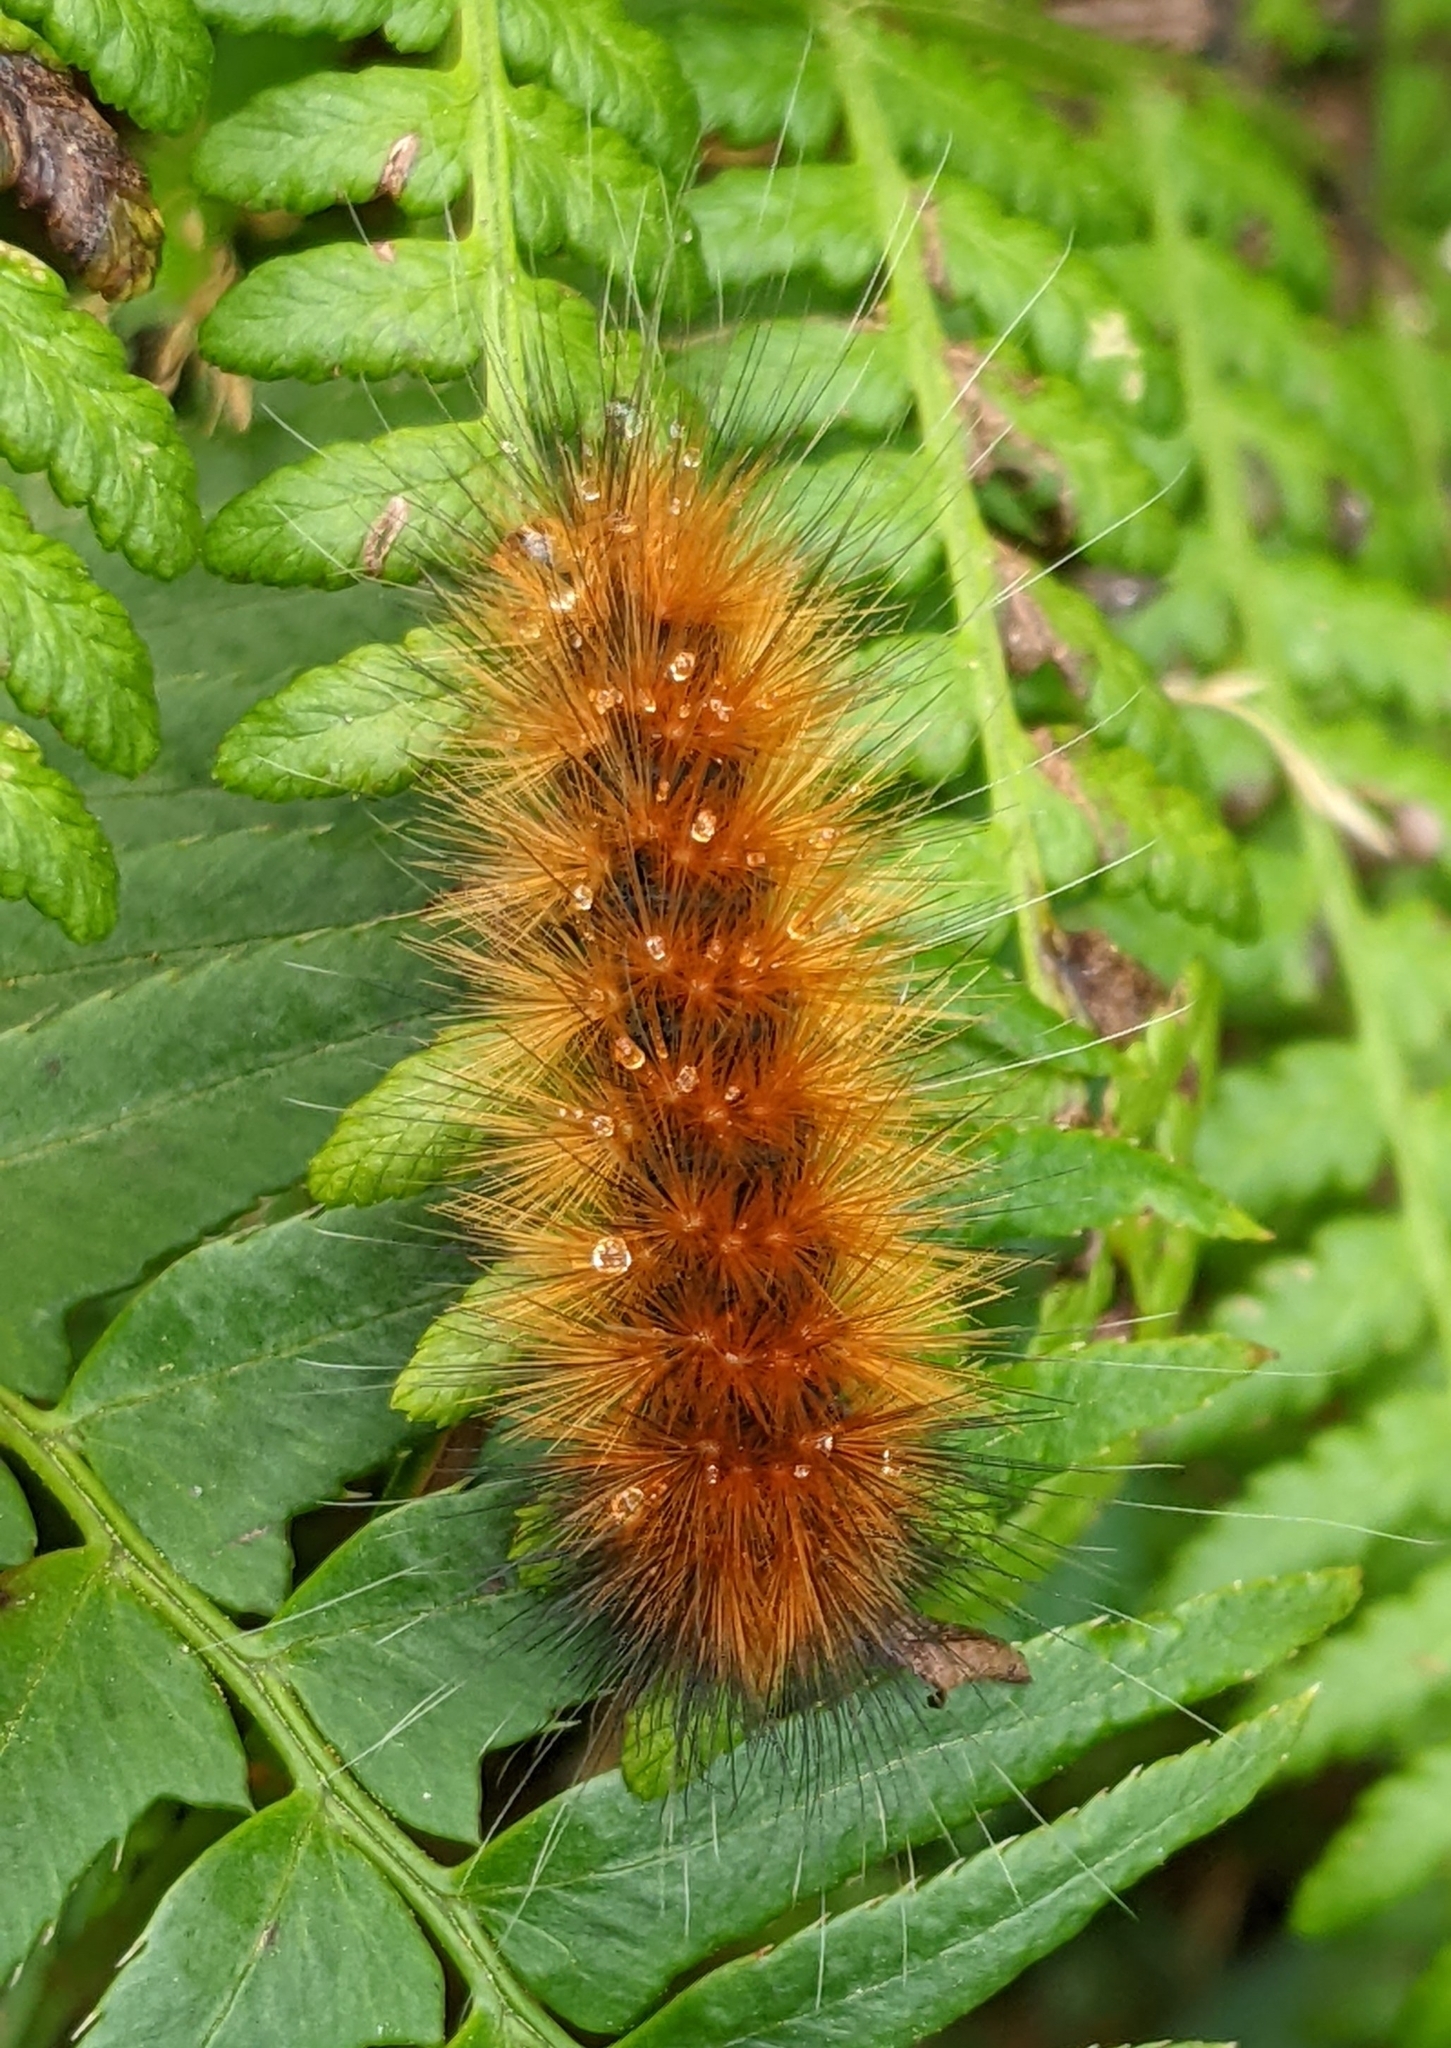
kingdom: Animalia
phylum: Arthropoda
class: Insecta
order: Lepidoptera
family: Erebidae
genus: Spilosoma
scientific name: Spilosoma virginica
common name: Virginia tiger moth
